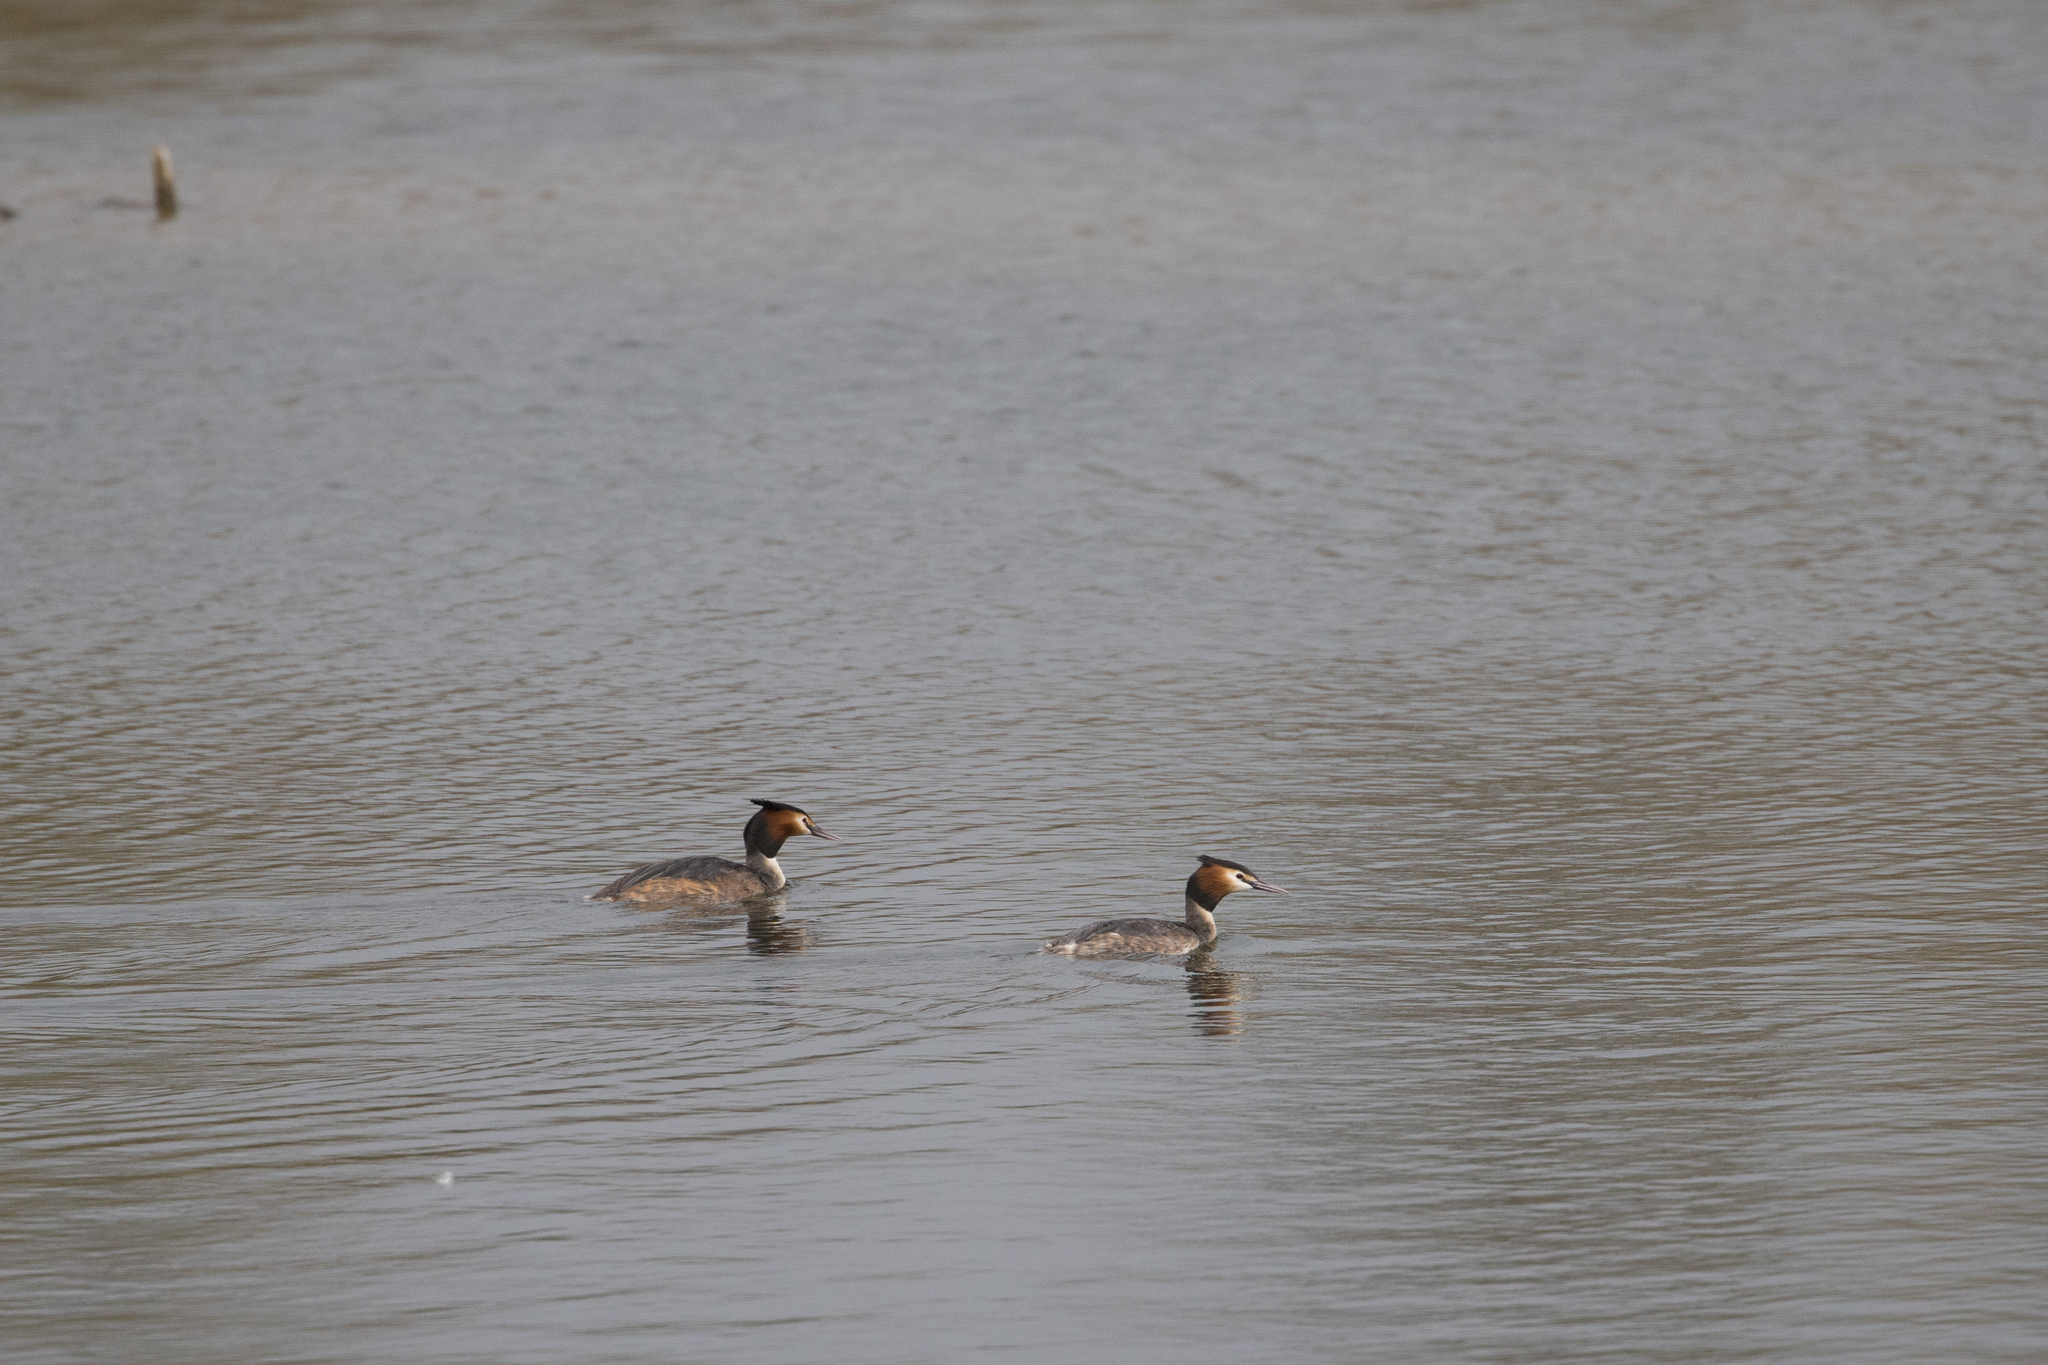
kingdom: Animalia
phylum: Chordata
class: Aves
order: Podicipediformes
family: Podicipedidae
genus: Podiceps
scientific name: Podiceps cristatus
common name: Great crested grebe
